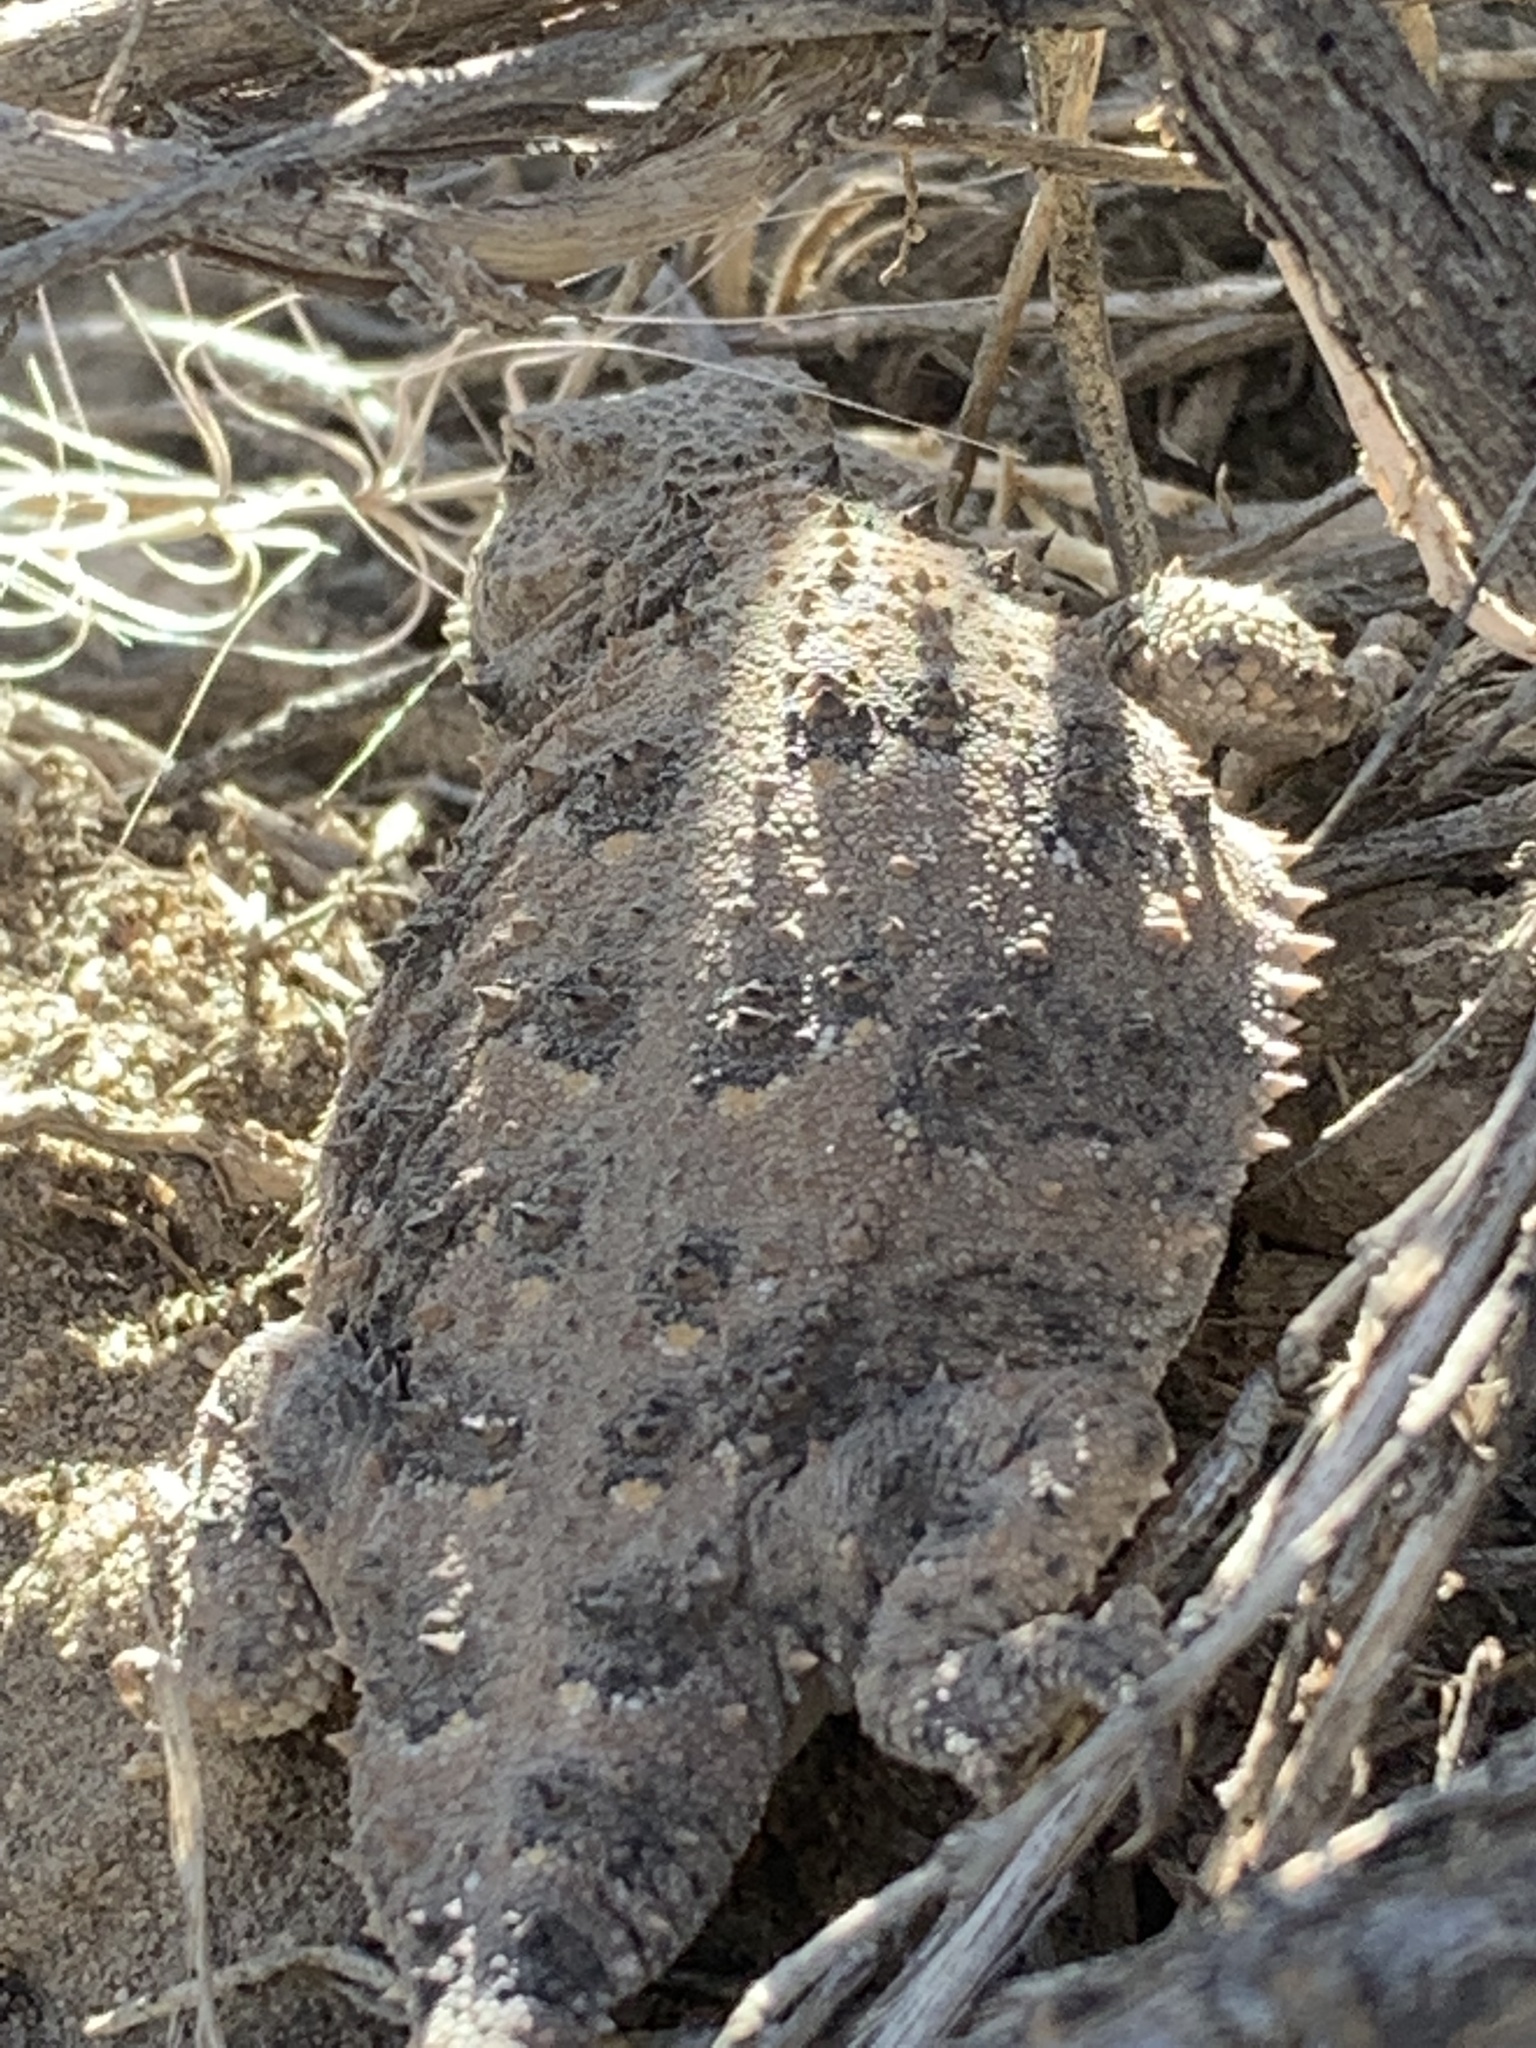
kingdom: Animalia
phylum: Chordata
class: Squamata
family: Phrynosomatidae
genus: Phrynosoma
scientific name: Phrynosoma douglasii
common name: Short-horned lizard
